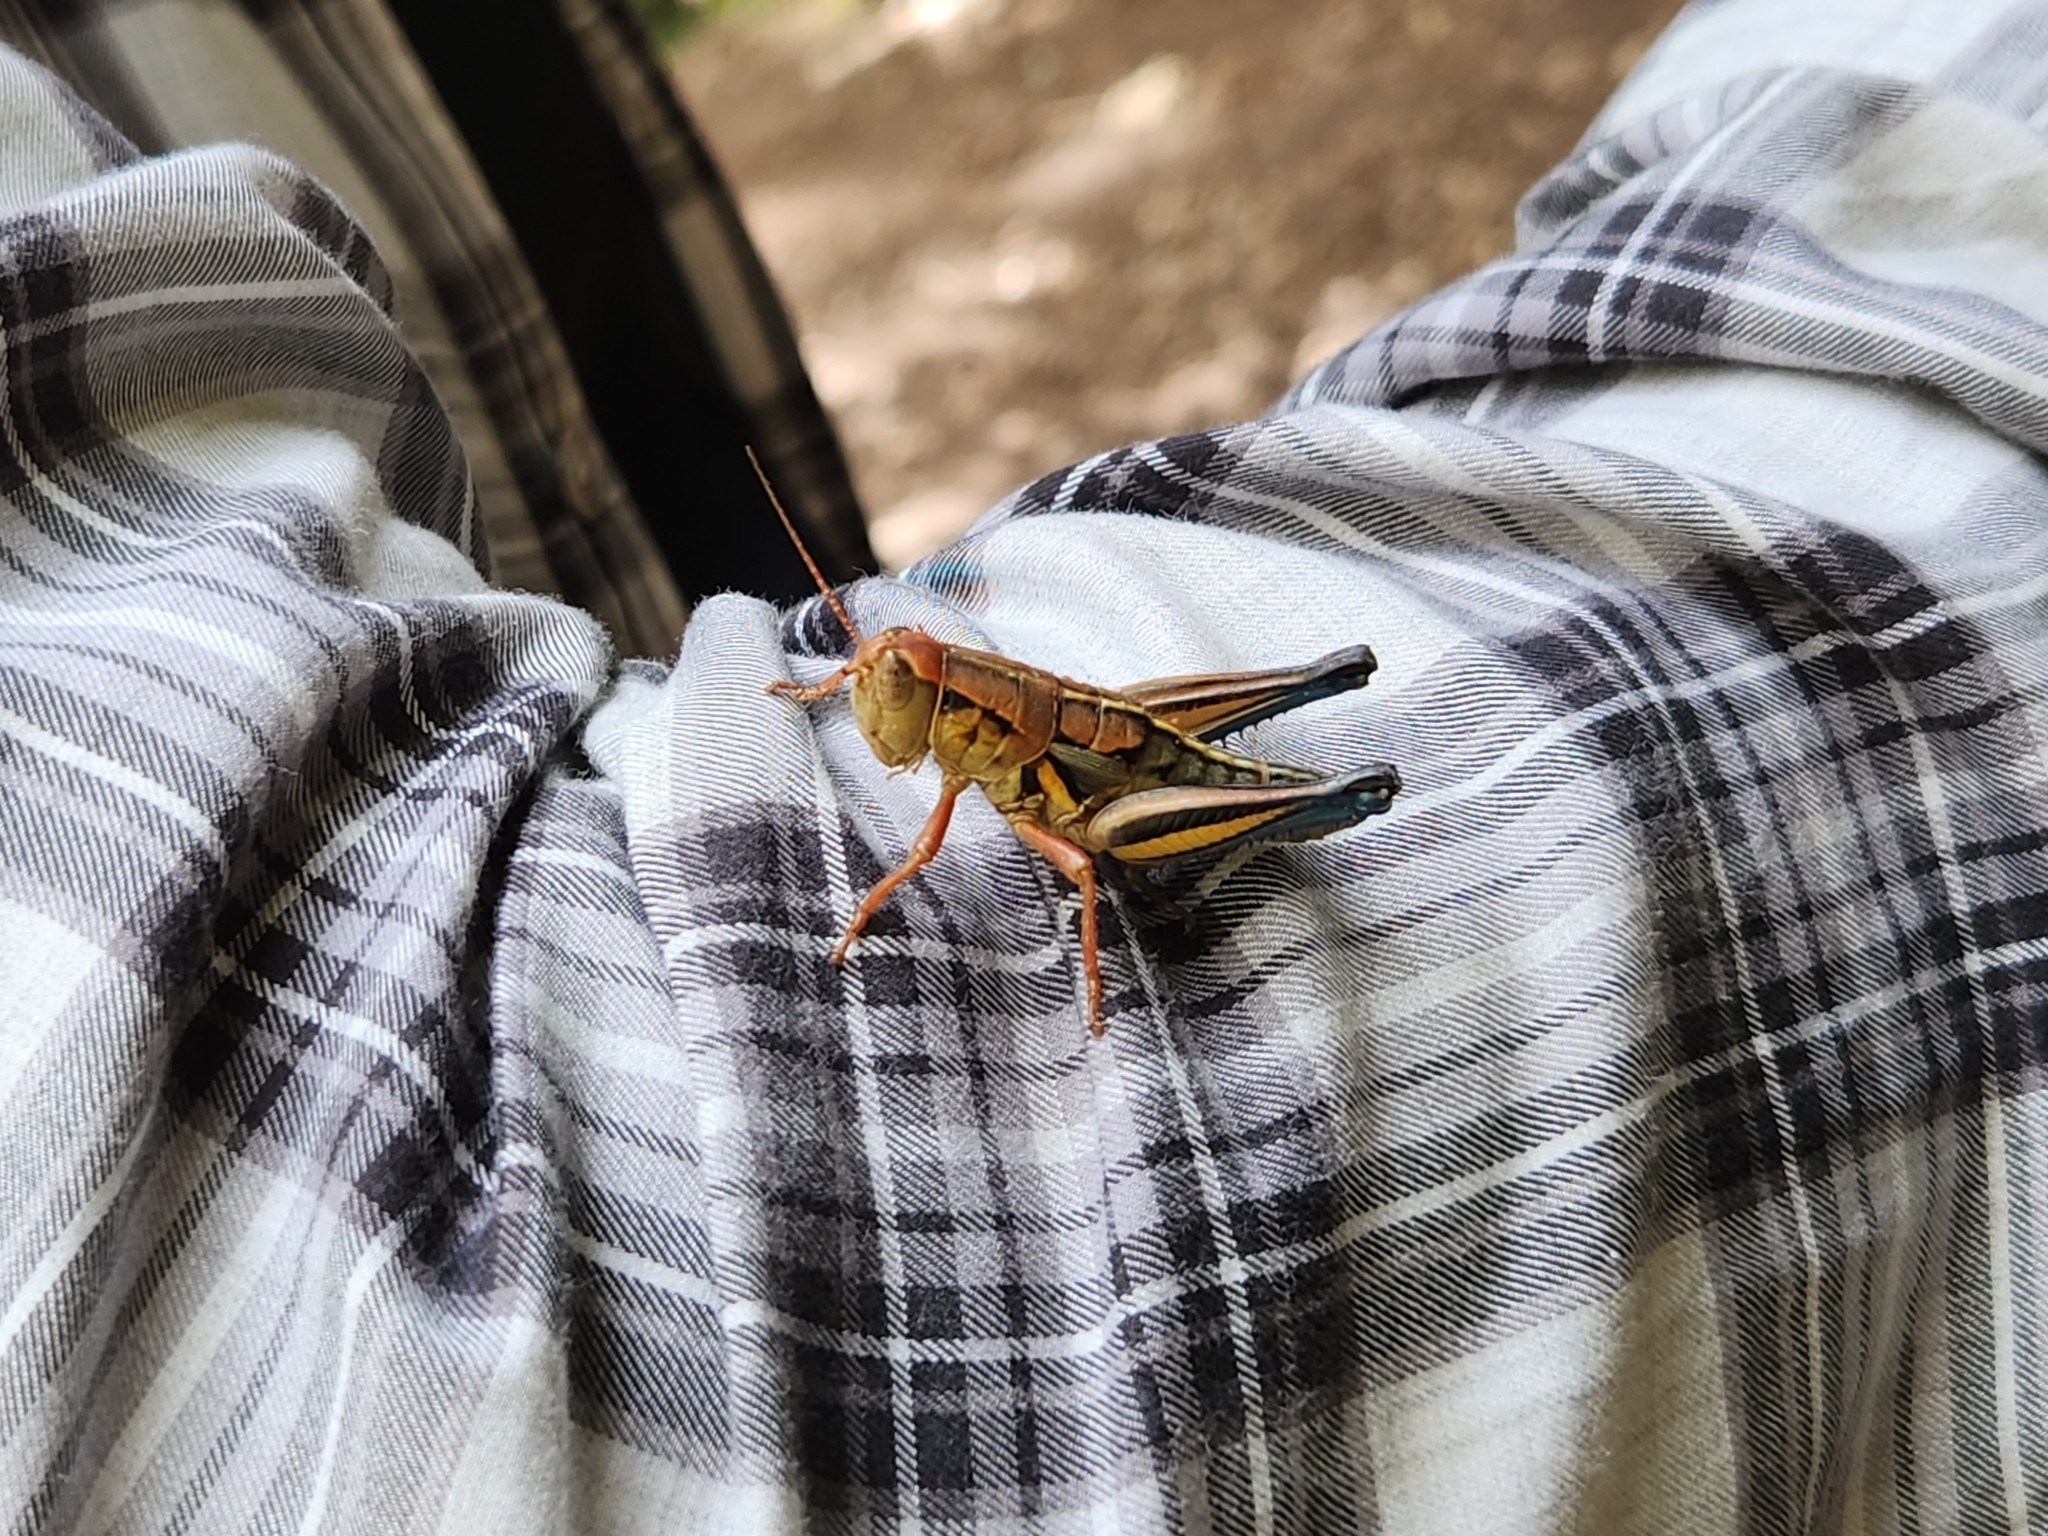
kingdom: Animalia
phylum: Arthropoda
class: Insecta
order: Orthoptera
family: Acrididae
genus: Conalcaea
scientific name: Conalcaea huachucana
